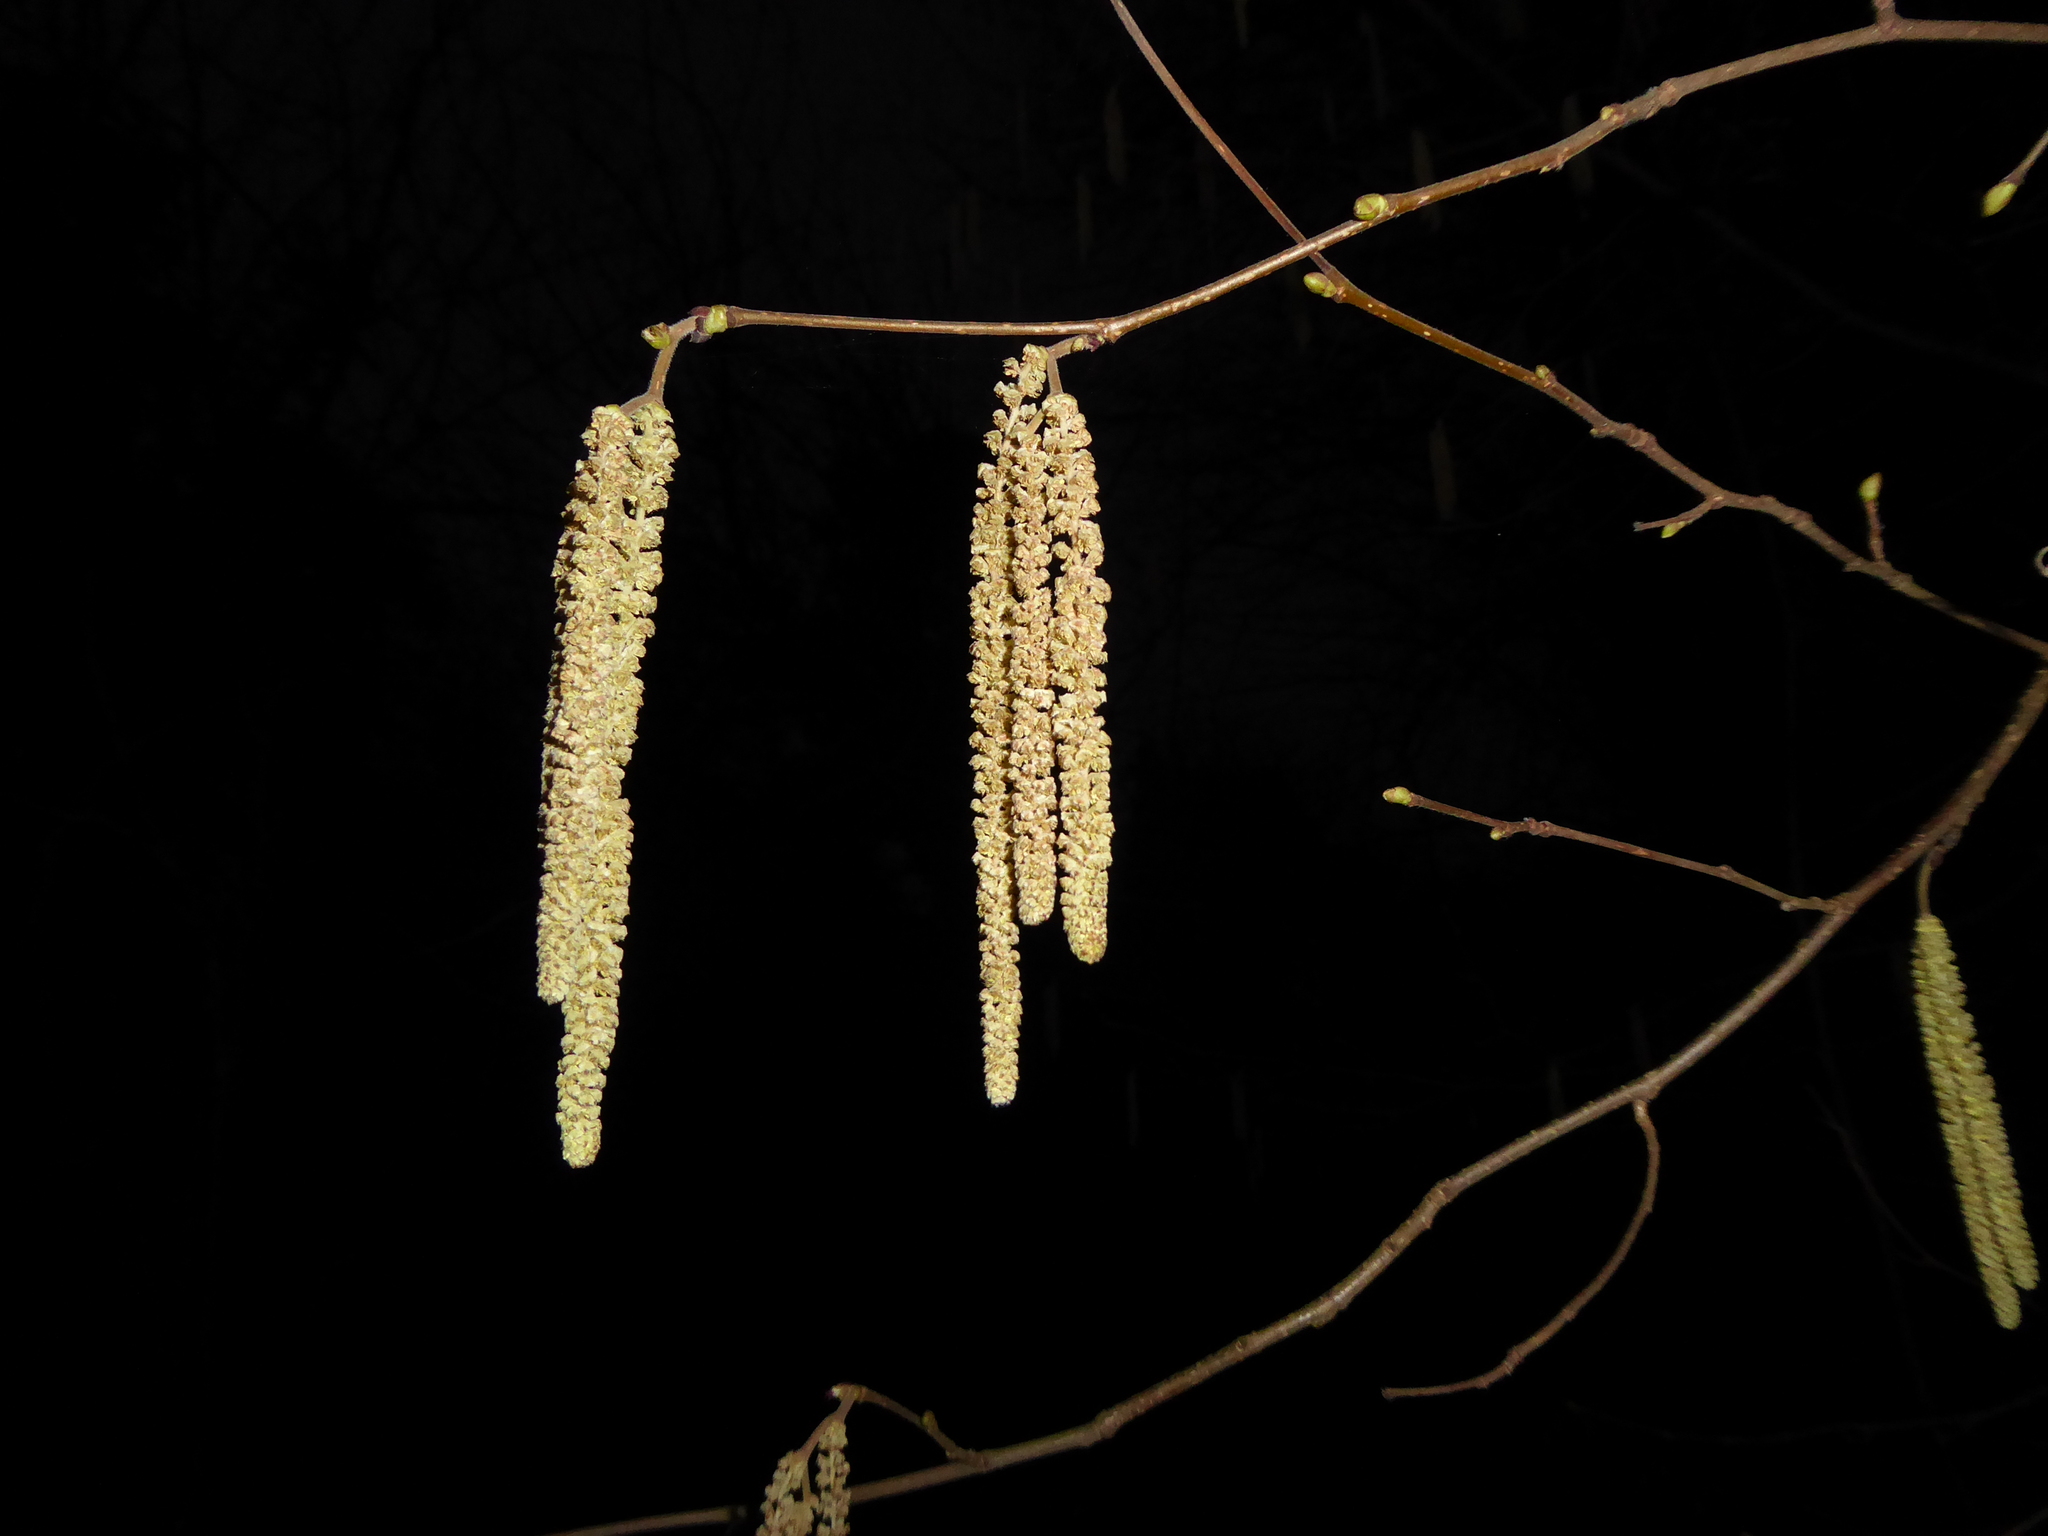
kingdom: Plantae
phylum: Tracheophyta
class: Magnoliopsida
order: Fagales
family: Betulaceae
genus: Corylus
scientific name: Corylus avellana
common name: European hazel
